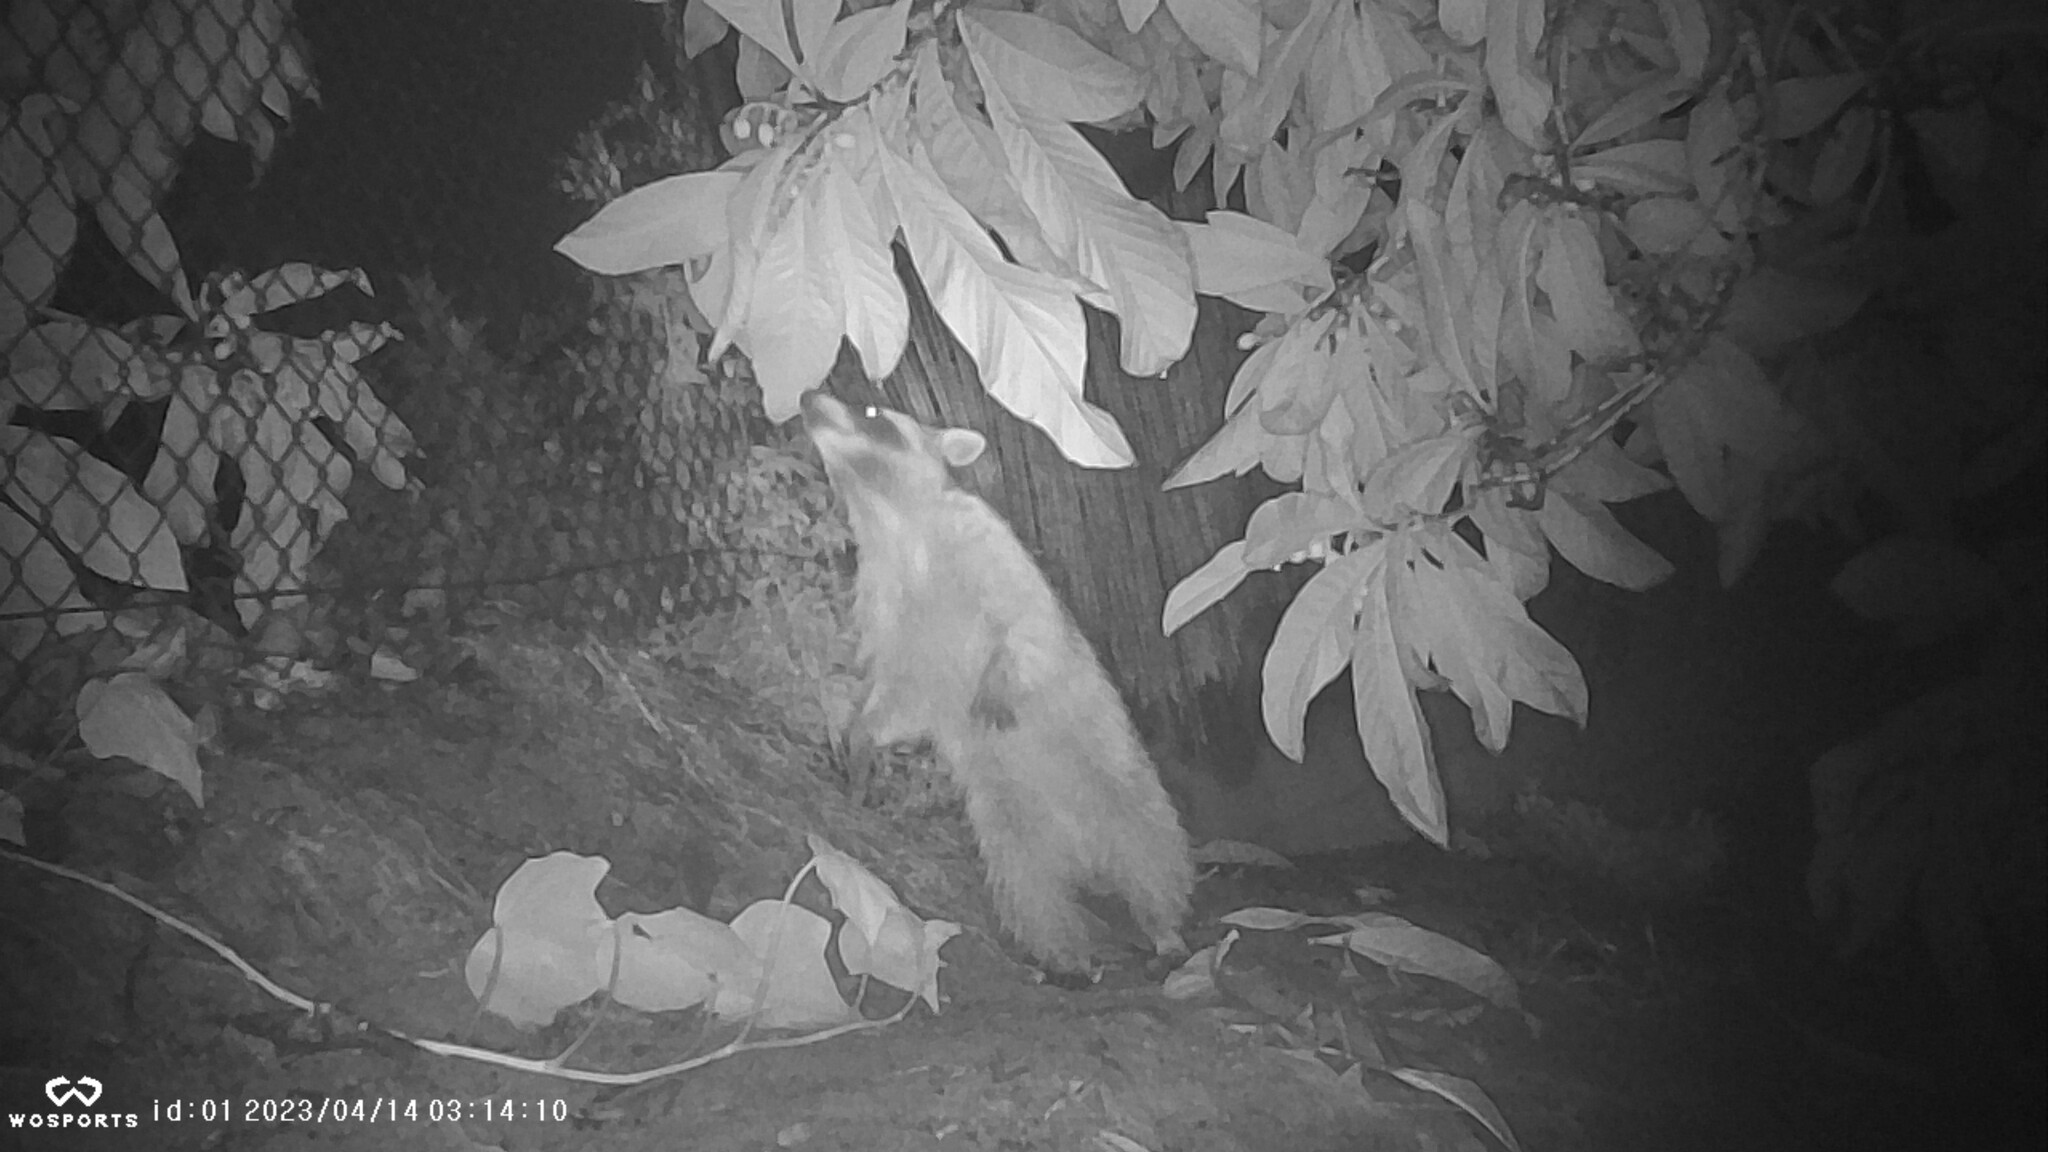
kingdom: Animalia
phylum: Chordata
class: Mammalia
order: Carnivora
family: Procyonidae
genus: Procyon
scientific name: Procyon lotor
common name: Raccoon
